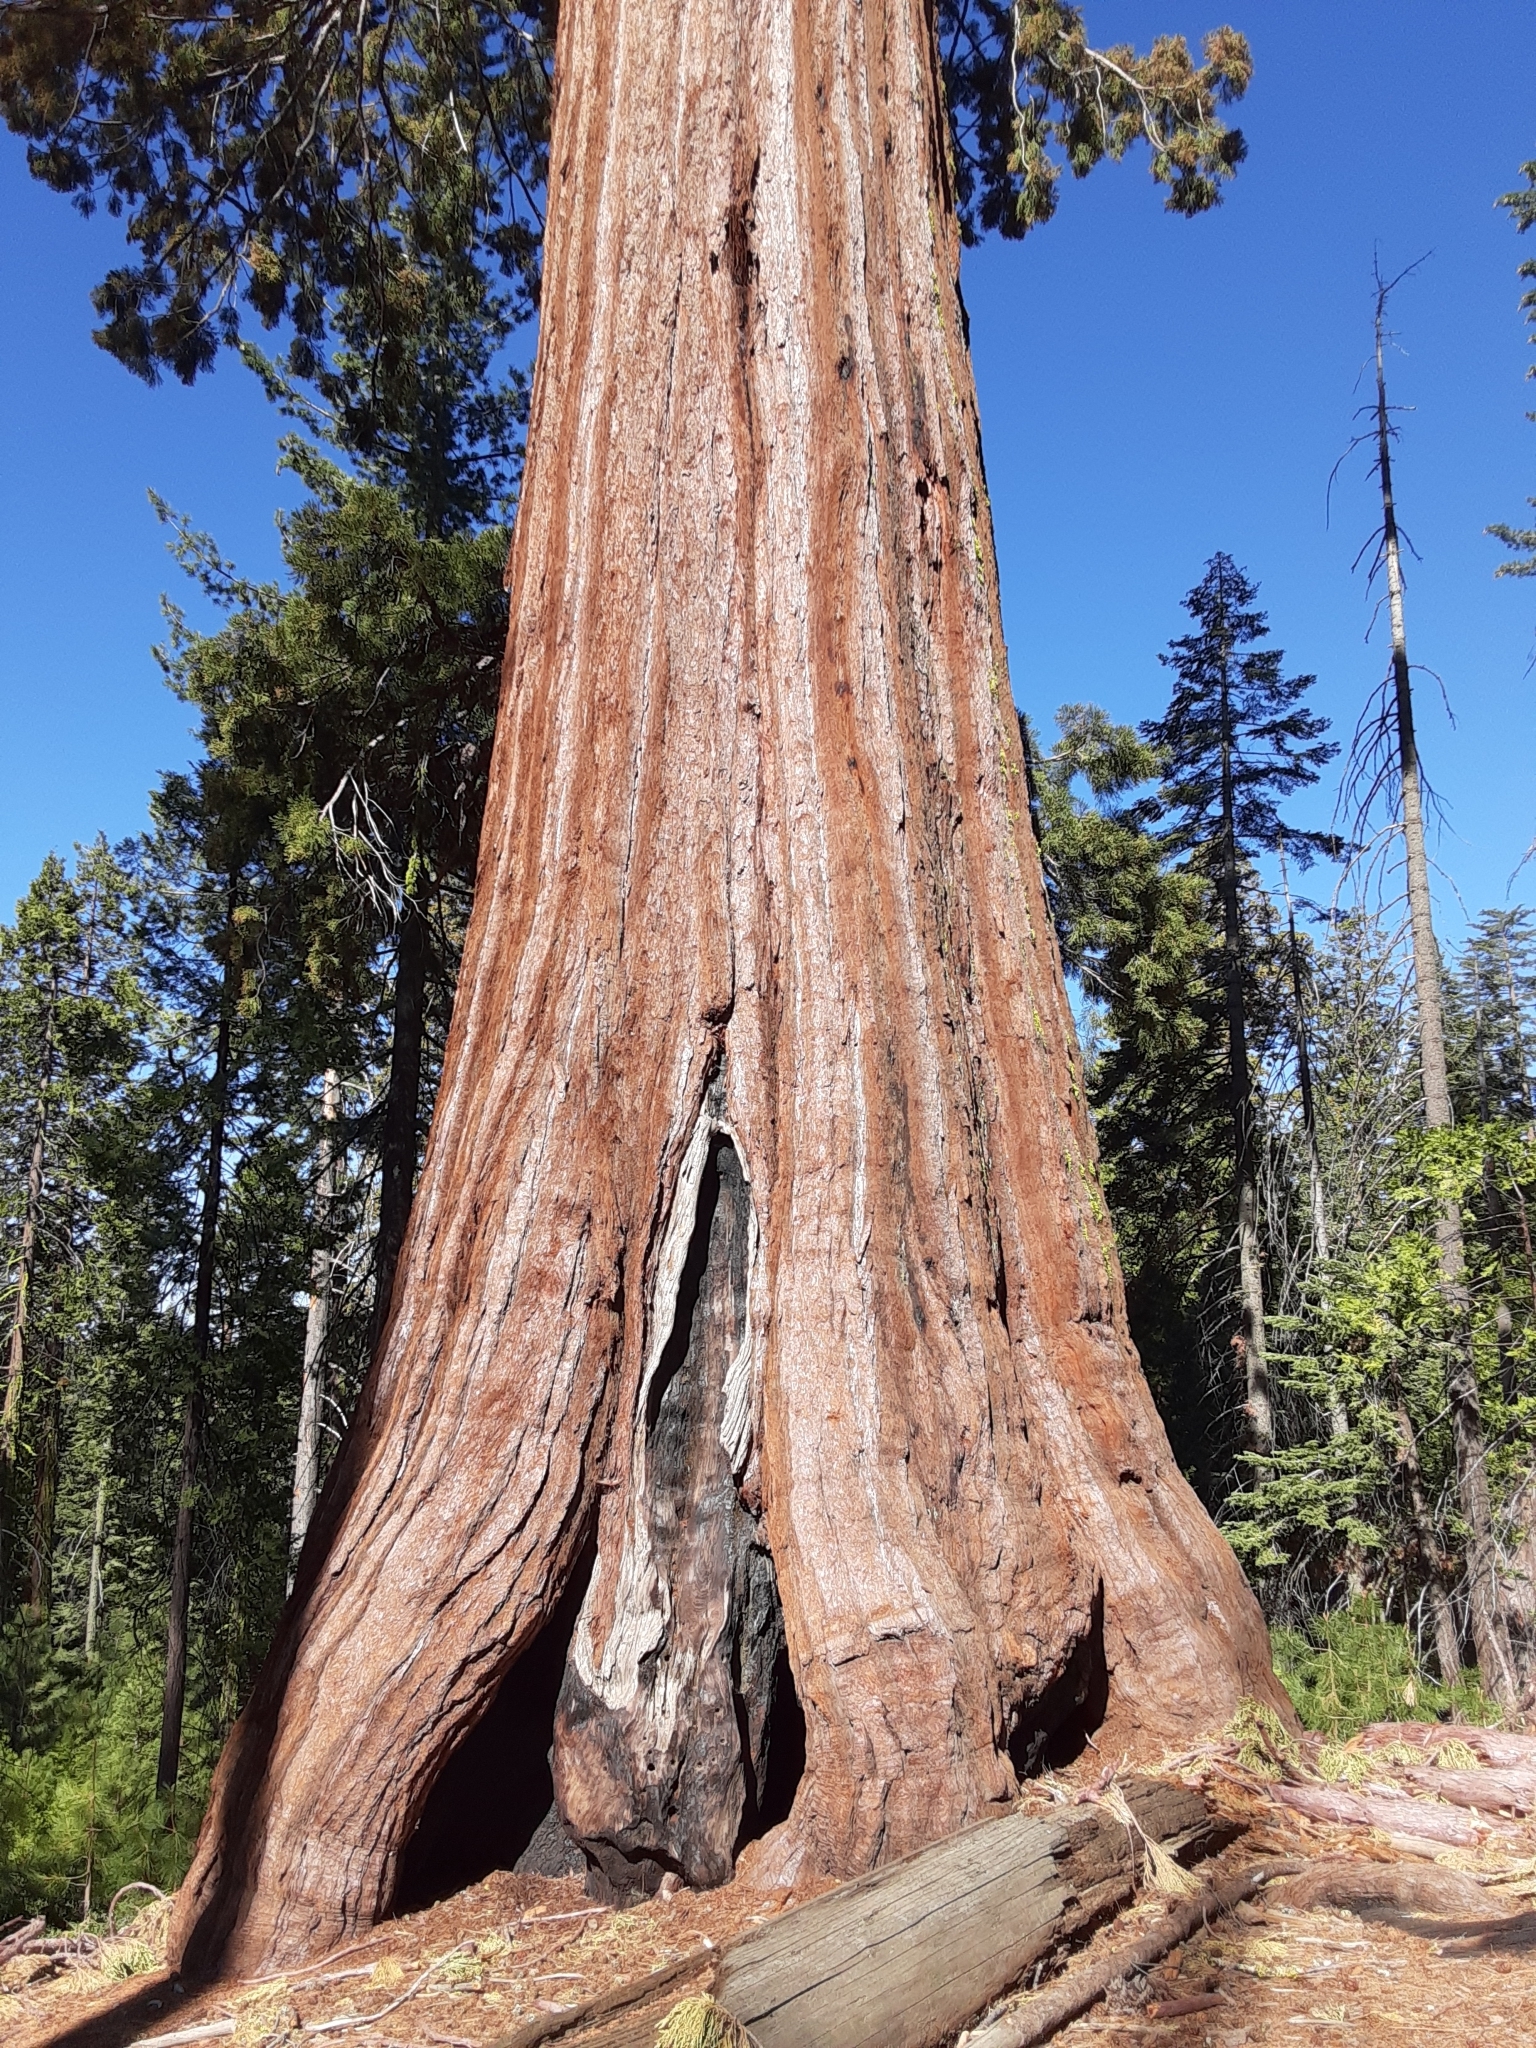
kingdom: Plantae
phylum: Tracheophyta
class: Pinopsida
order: Pinales
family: Cupressaceae
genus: Sequoiadendron
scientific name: Sequoiadendron giganteum
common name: Wellingtonia
